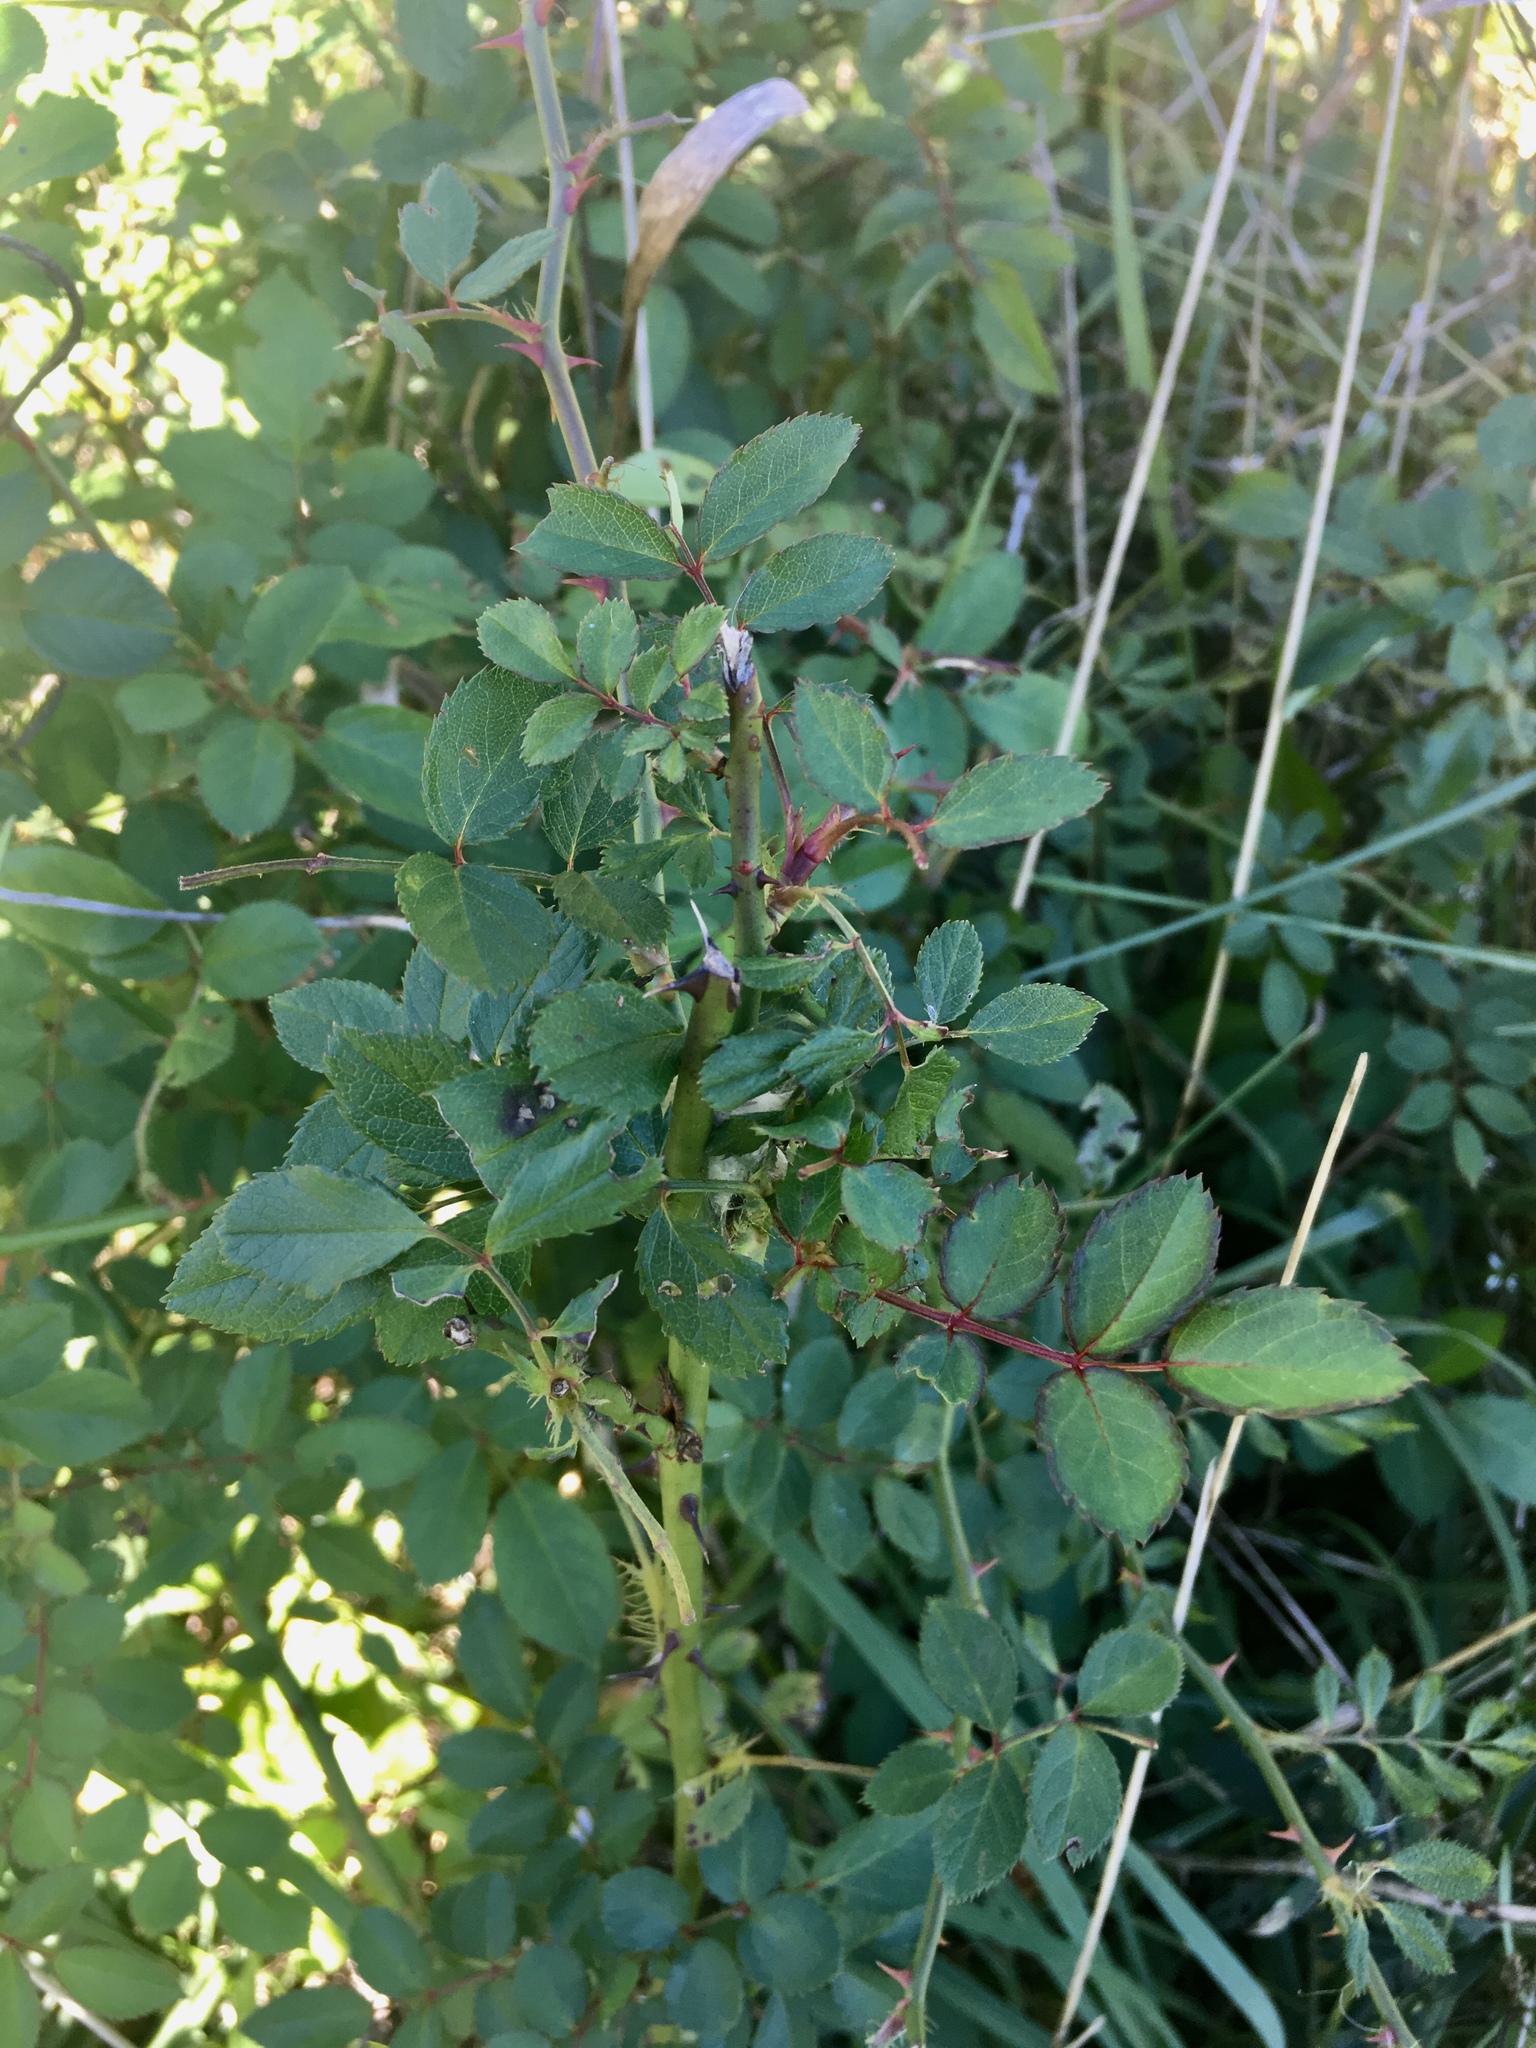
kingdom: Plantae
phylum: Tracheophyta
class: Magnoliopsida
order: Rosales
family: Rosaceae
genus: Rosa
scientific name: Rosa multiflora
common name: Multiflora rose
